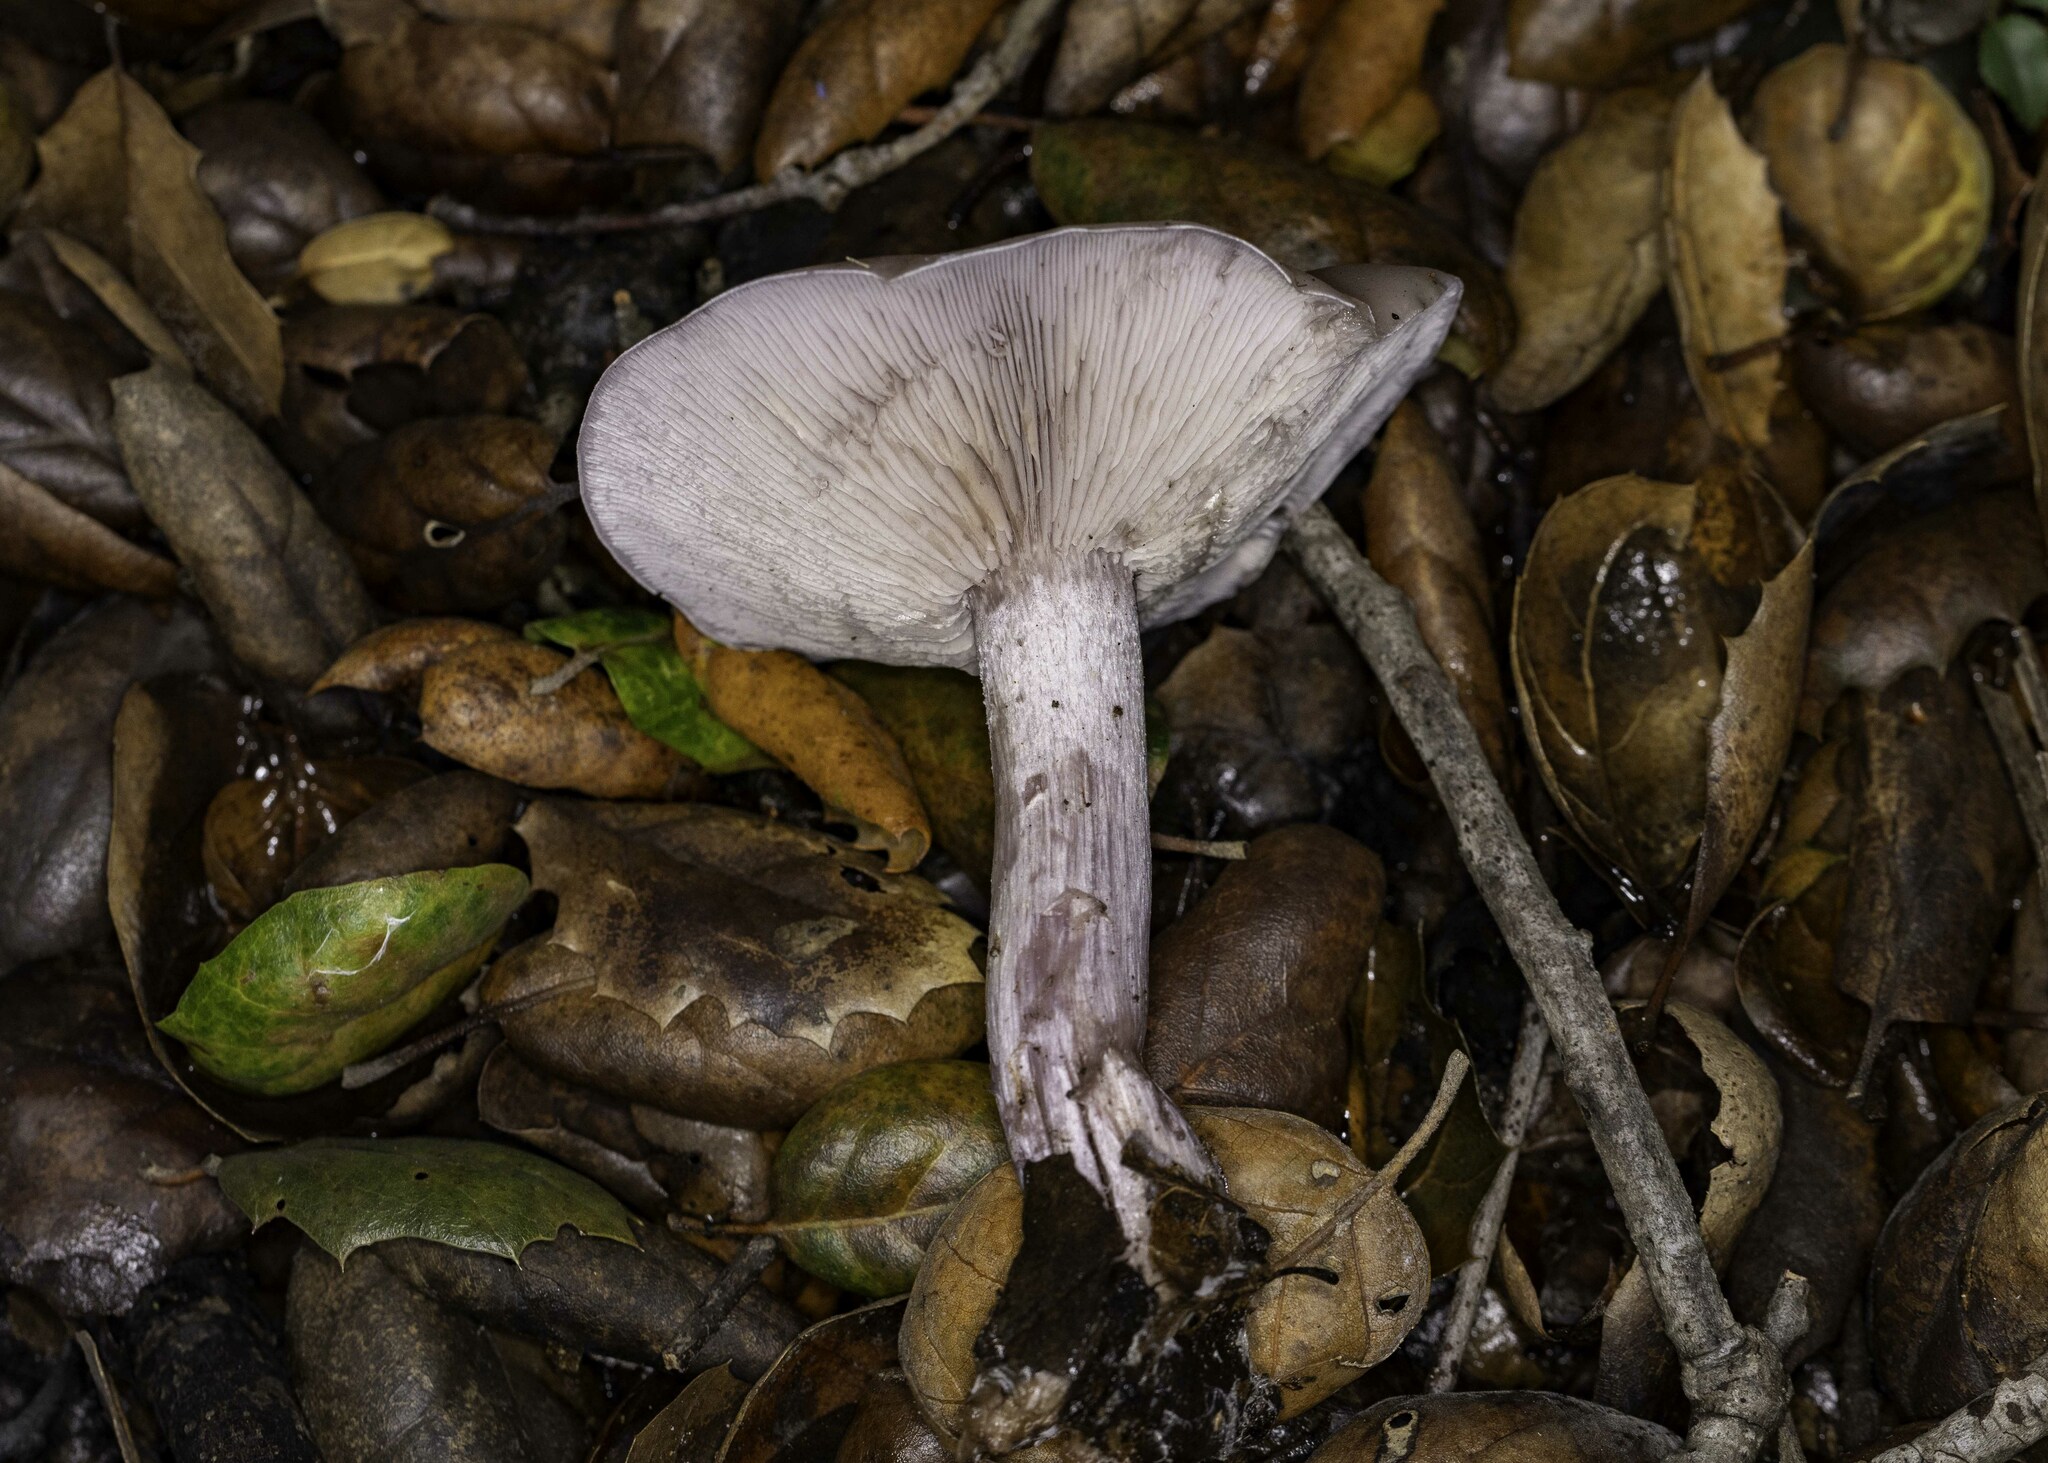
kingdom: Fungi
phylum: Basidiomycota
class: Agaricomycetes
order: Agaricales
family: Tricholomataceae
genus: Collybia
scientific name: Collybia
